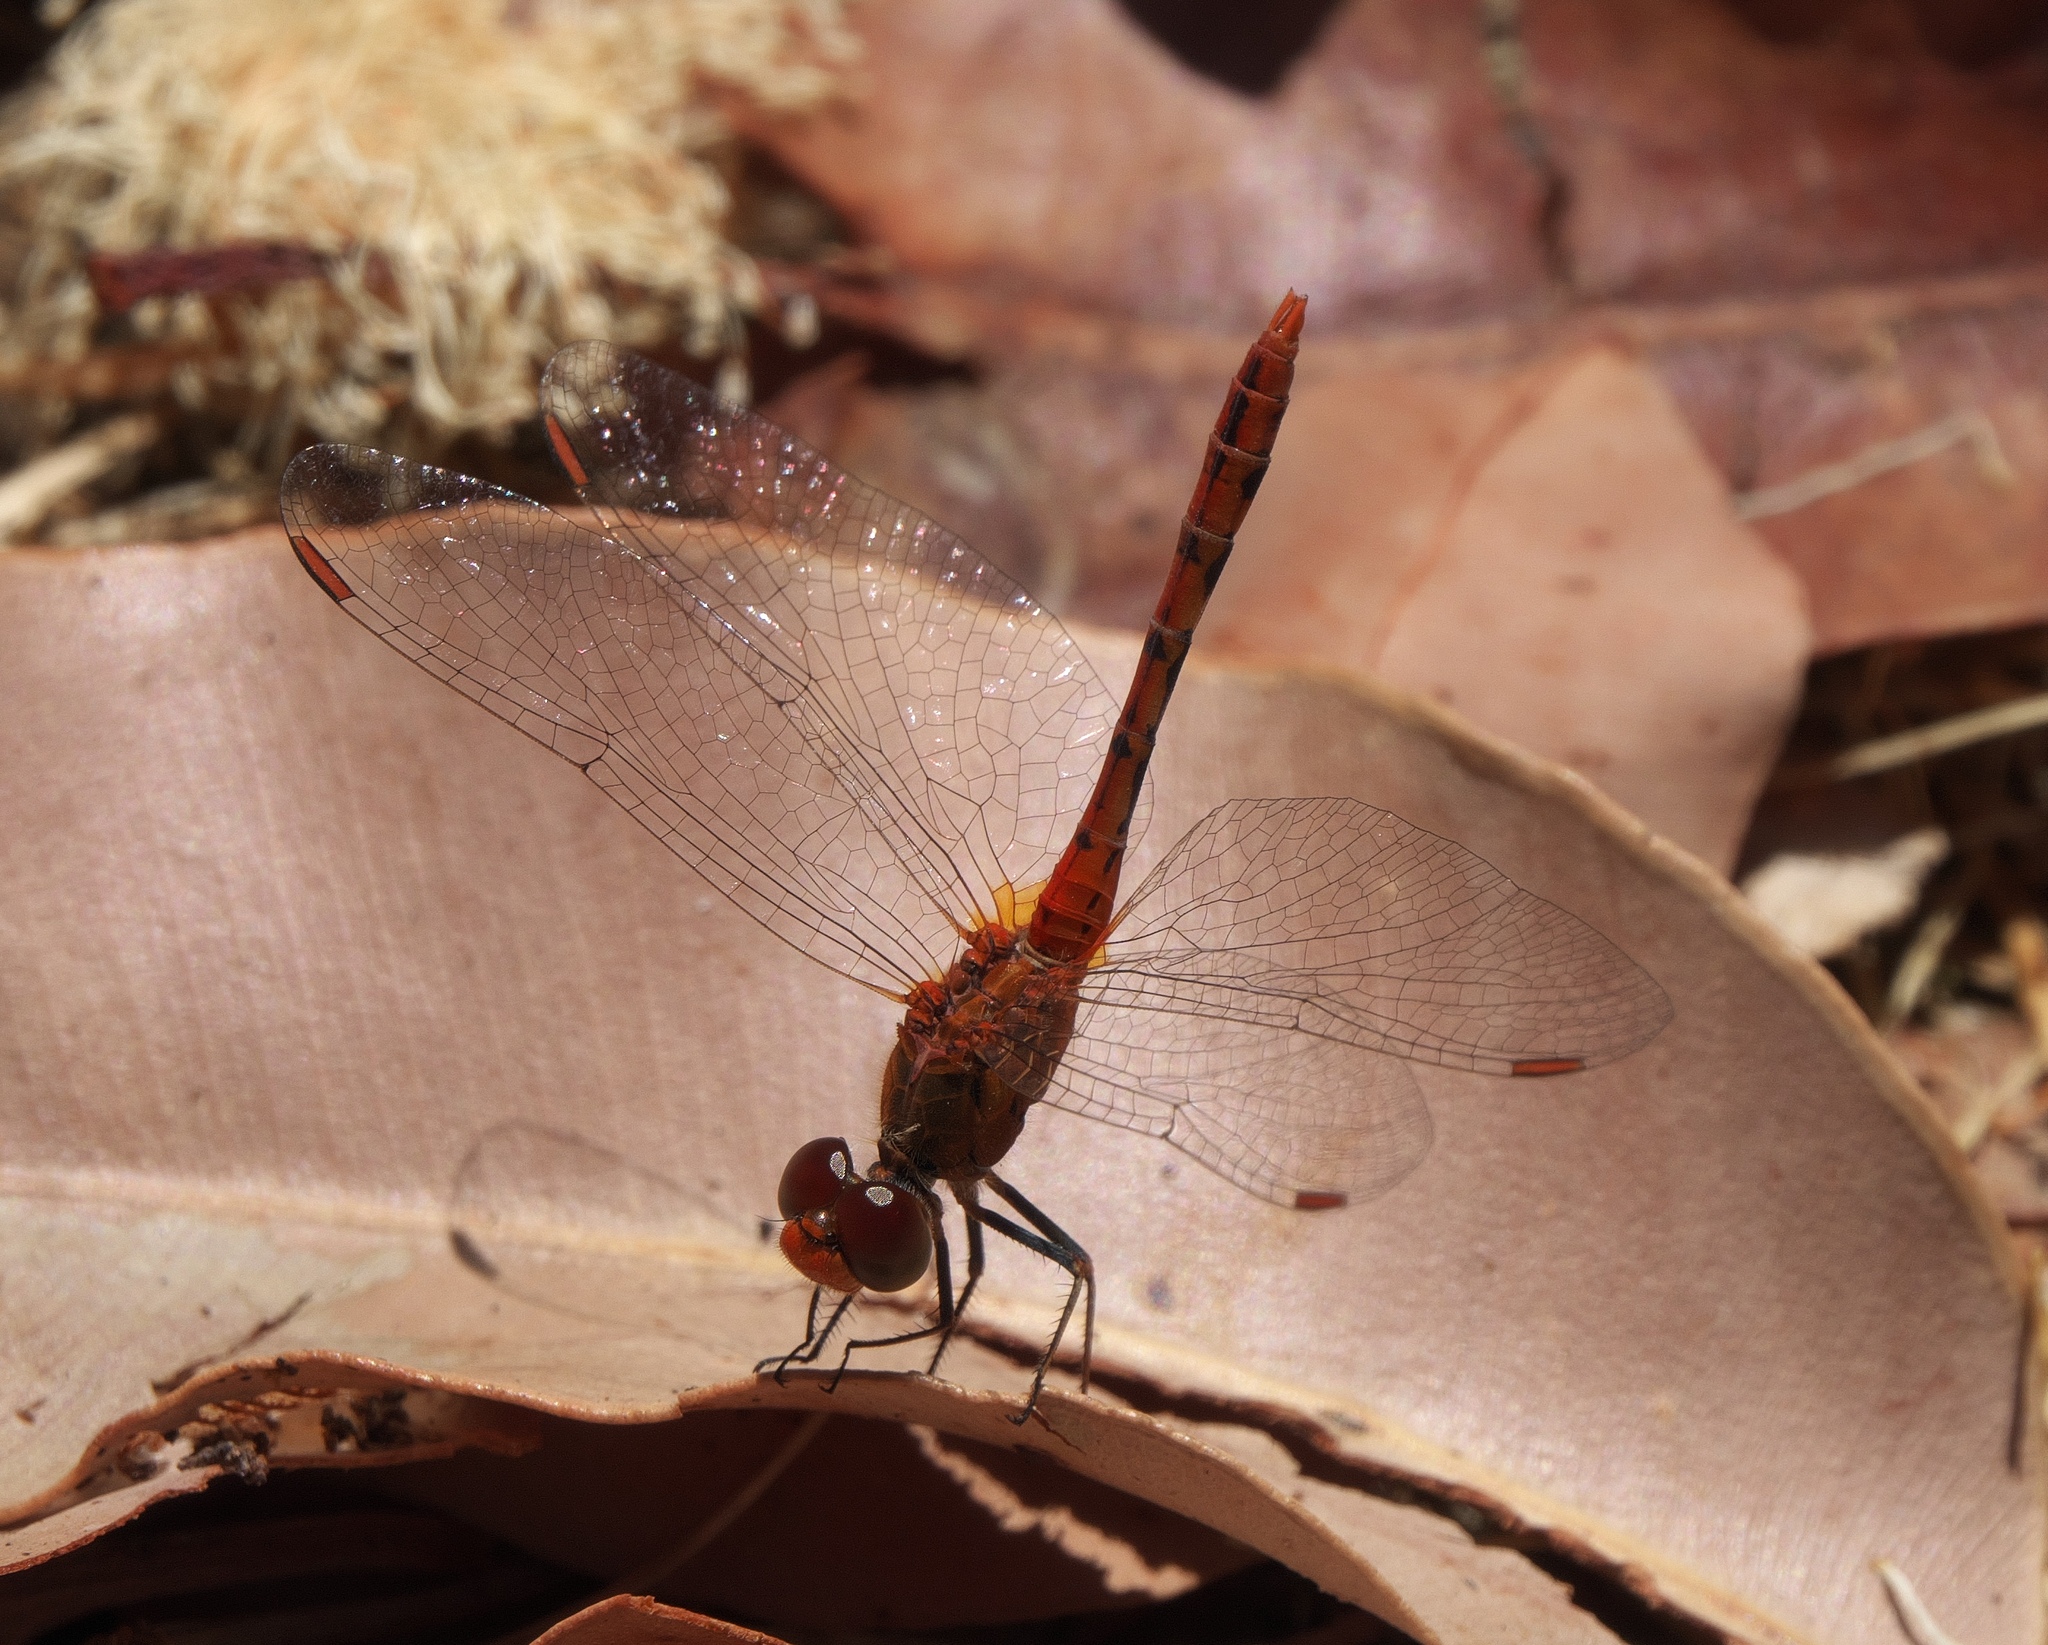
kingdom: Animalia
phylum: Arthropoda
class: Insecta
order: Odonata
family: Libellulidae
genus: Diplacodes
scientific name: Diplacodes bipunctata
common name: Red percher dragonfly
